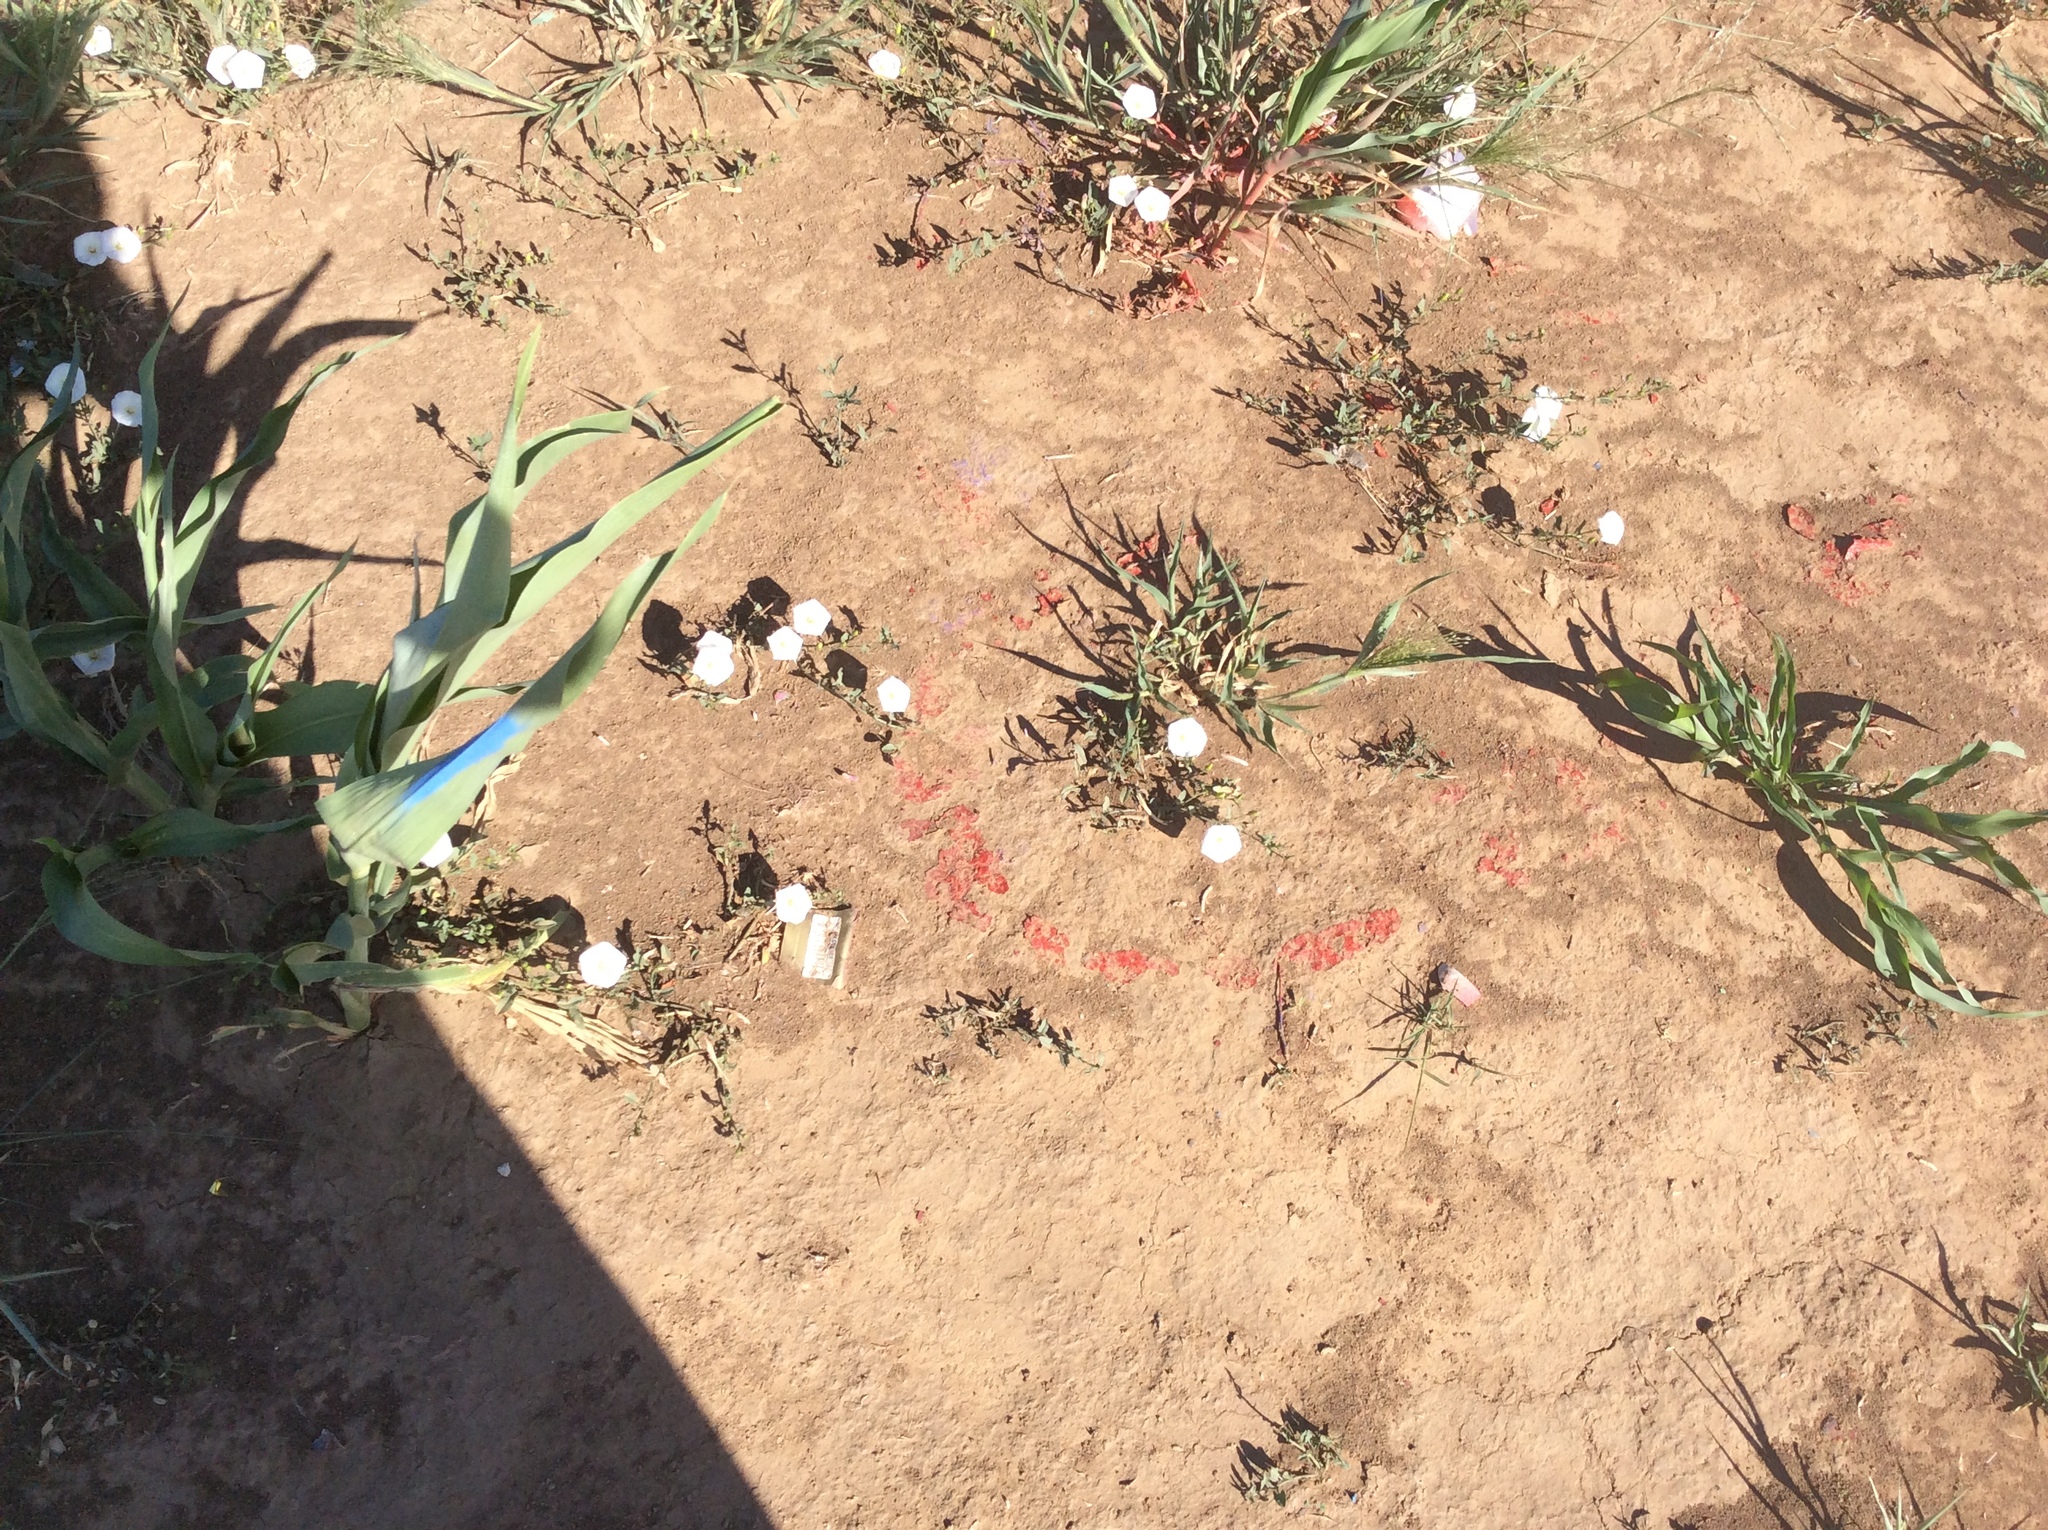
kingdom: Plantae
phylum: Tracheophyta
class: Magnoliopsida
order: Solanales
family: Convolvulaceae
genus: Convolvulus
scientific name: Convolvulus arvensis
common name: Field bindweed
